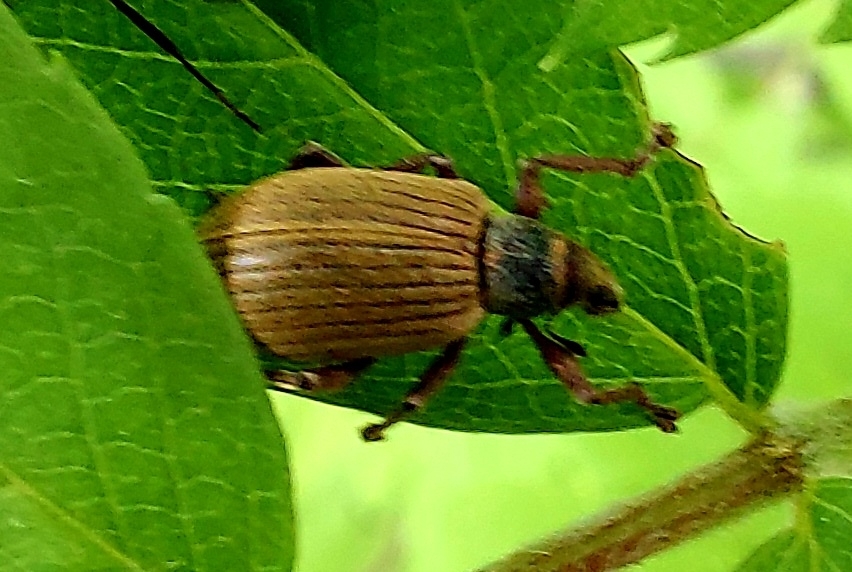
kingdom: Animalia
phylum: Arthropoda
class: Insecta
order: Coleoptera
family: Curculionidae
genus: Polydrusus
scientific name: Polydrusus mollis
